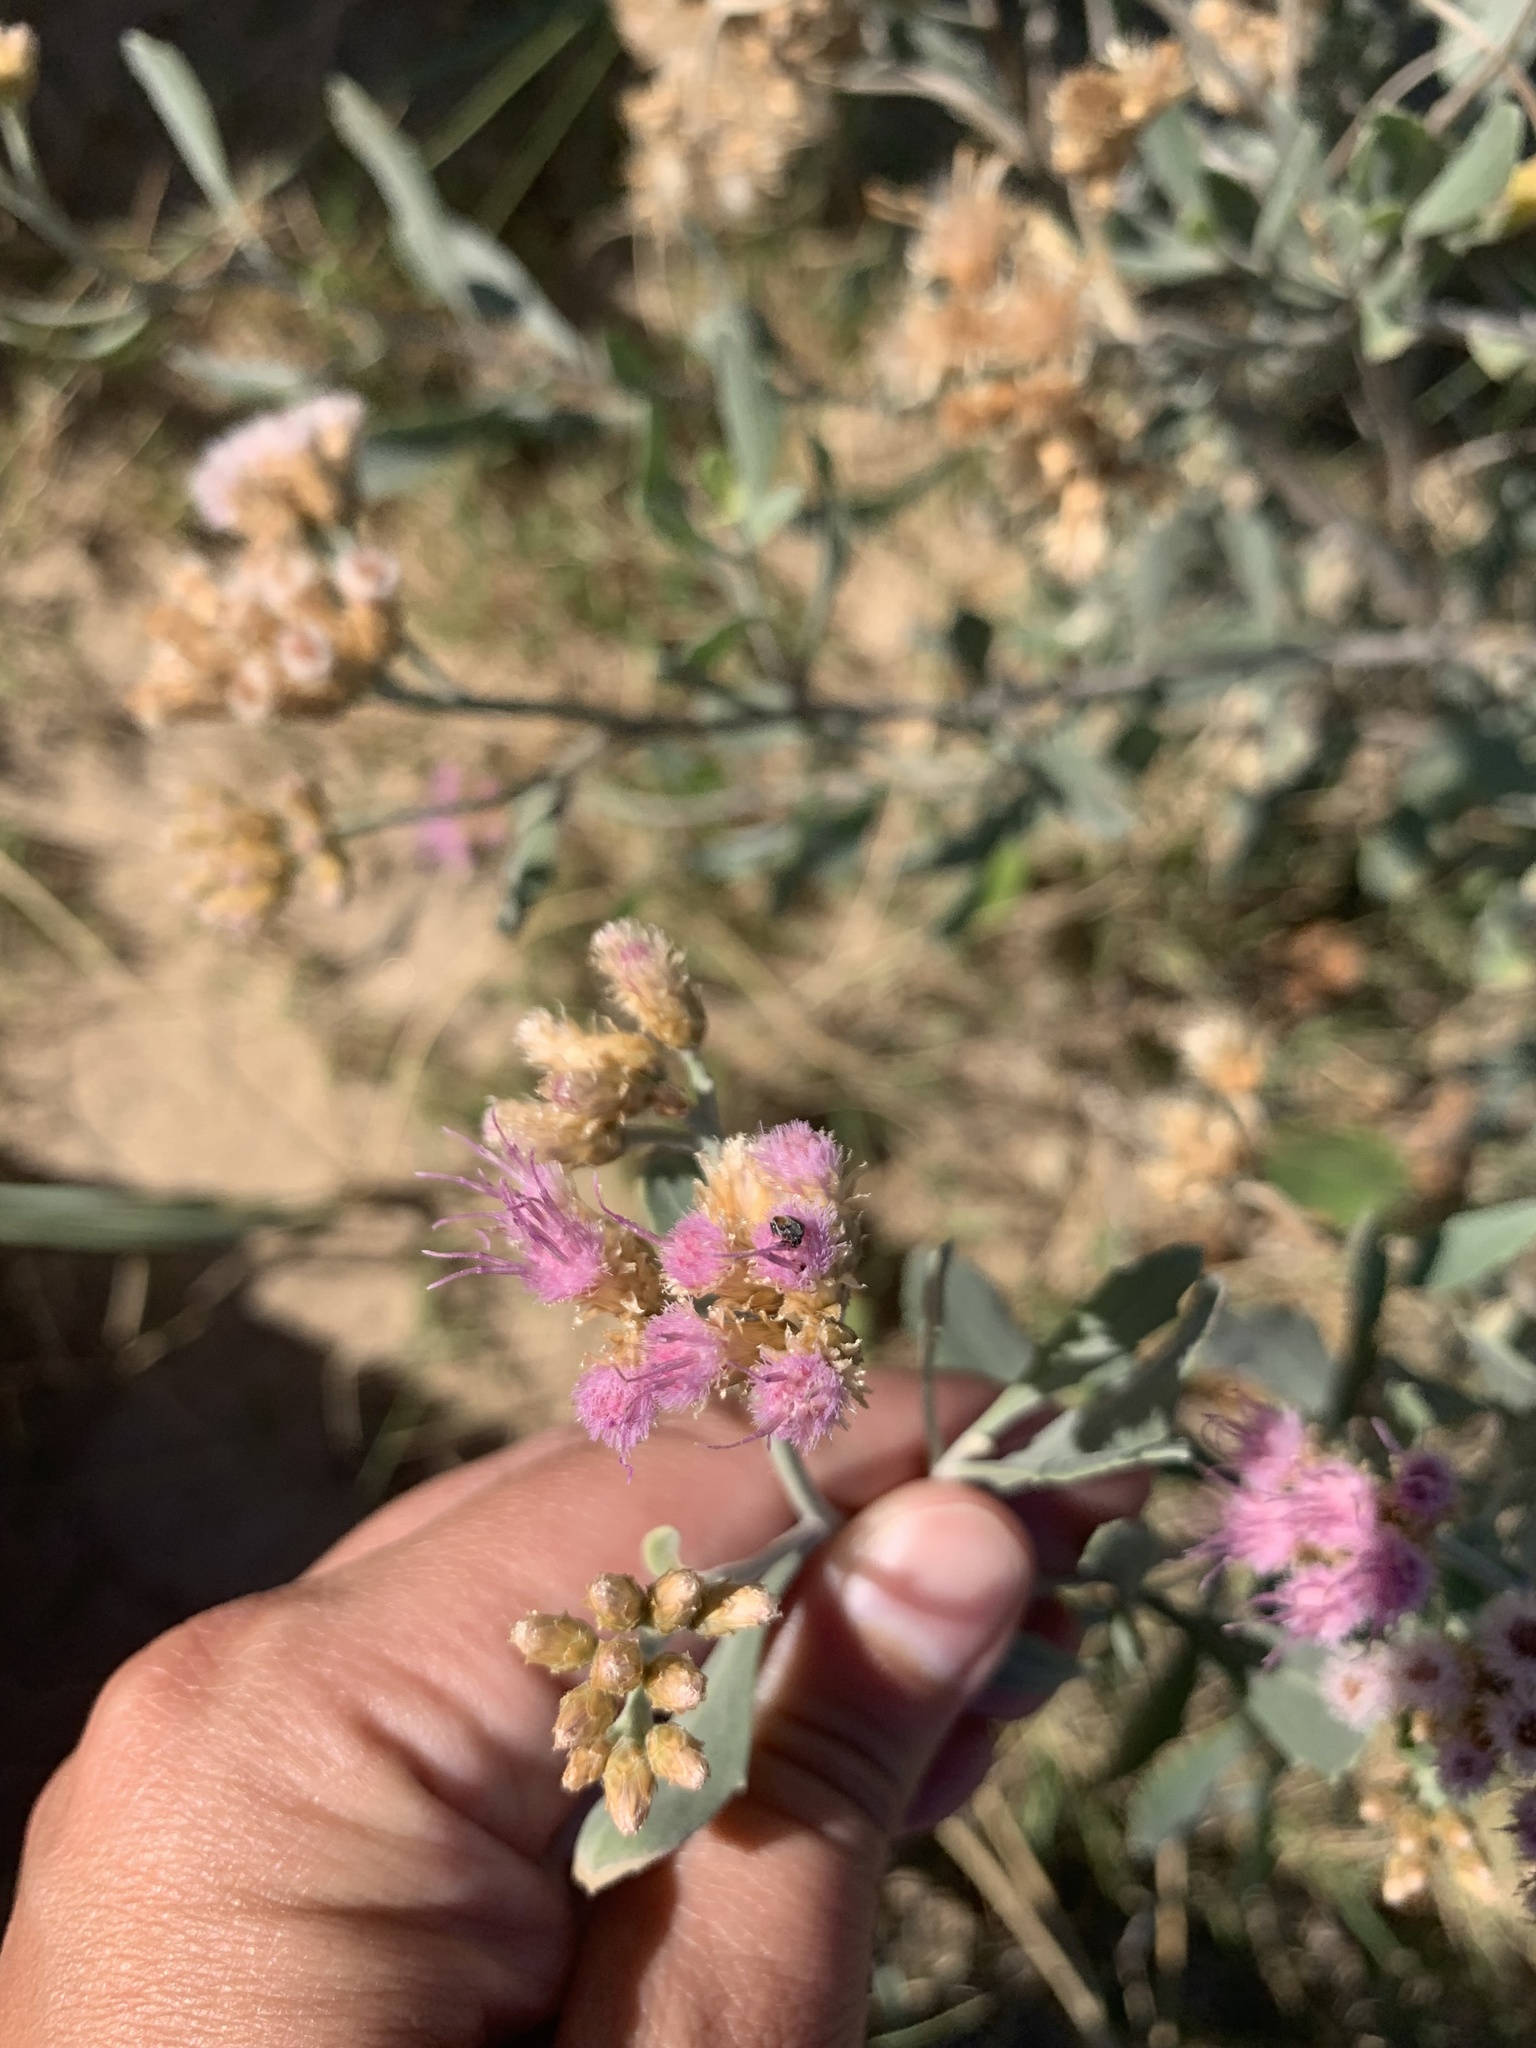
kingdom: Plantae
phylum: Tracheophyta
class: Magnoliopsida
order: Asterales
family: Asteraceae
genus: Tessaria
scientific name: Tessaria absinthioides
